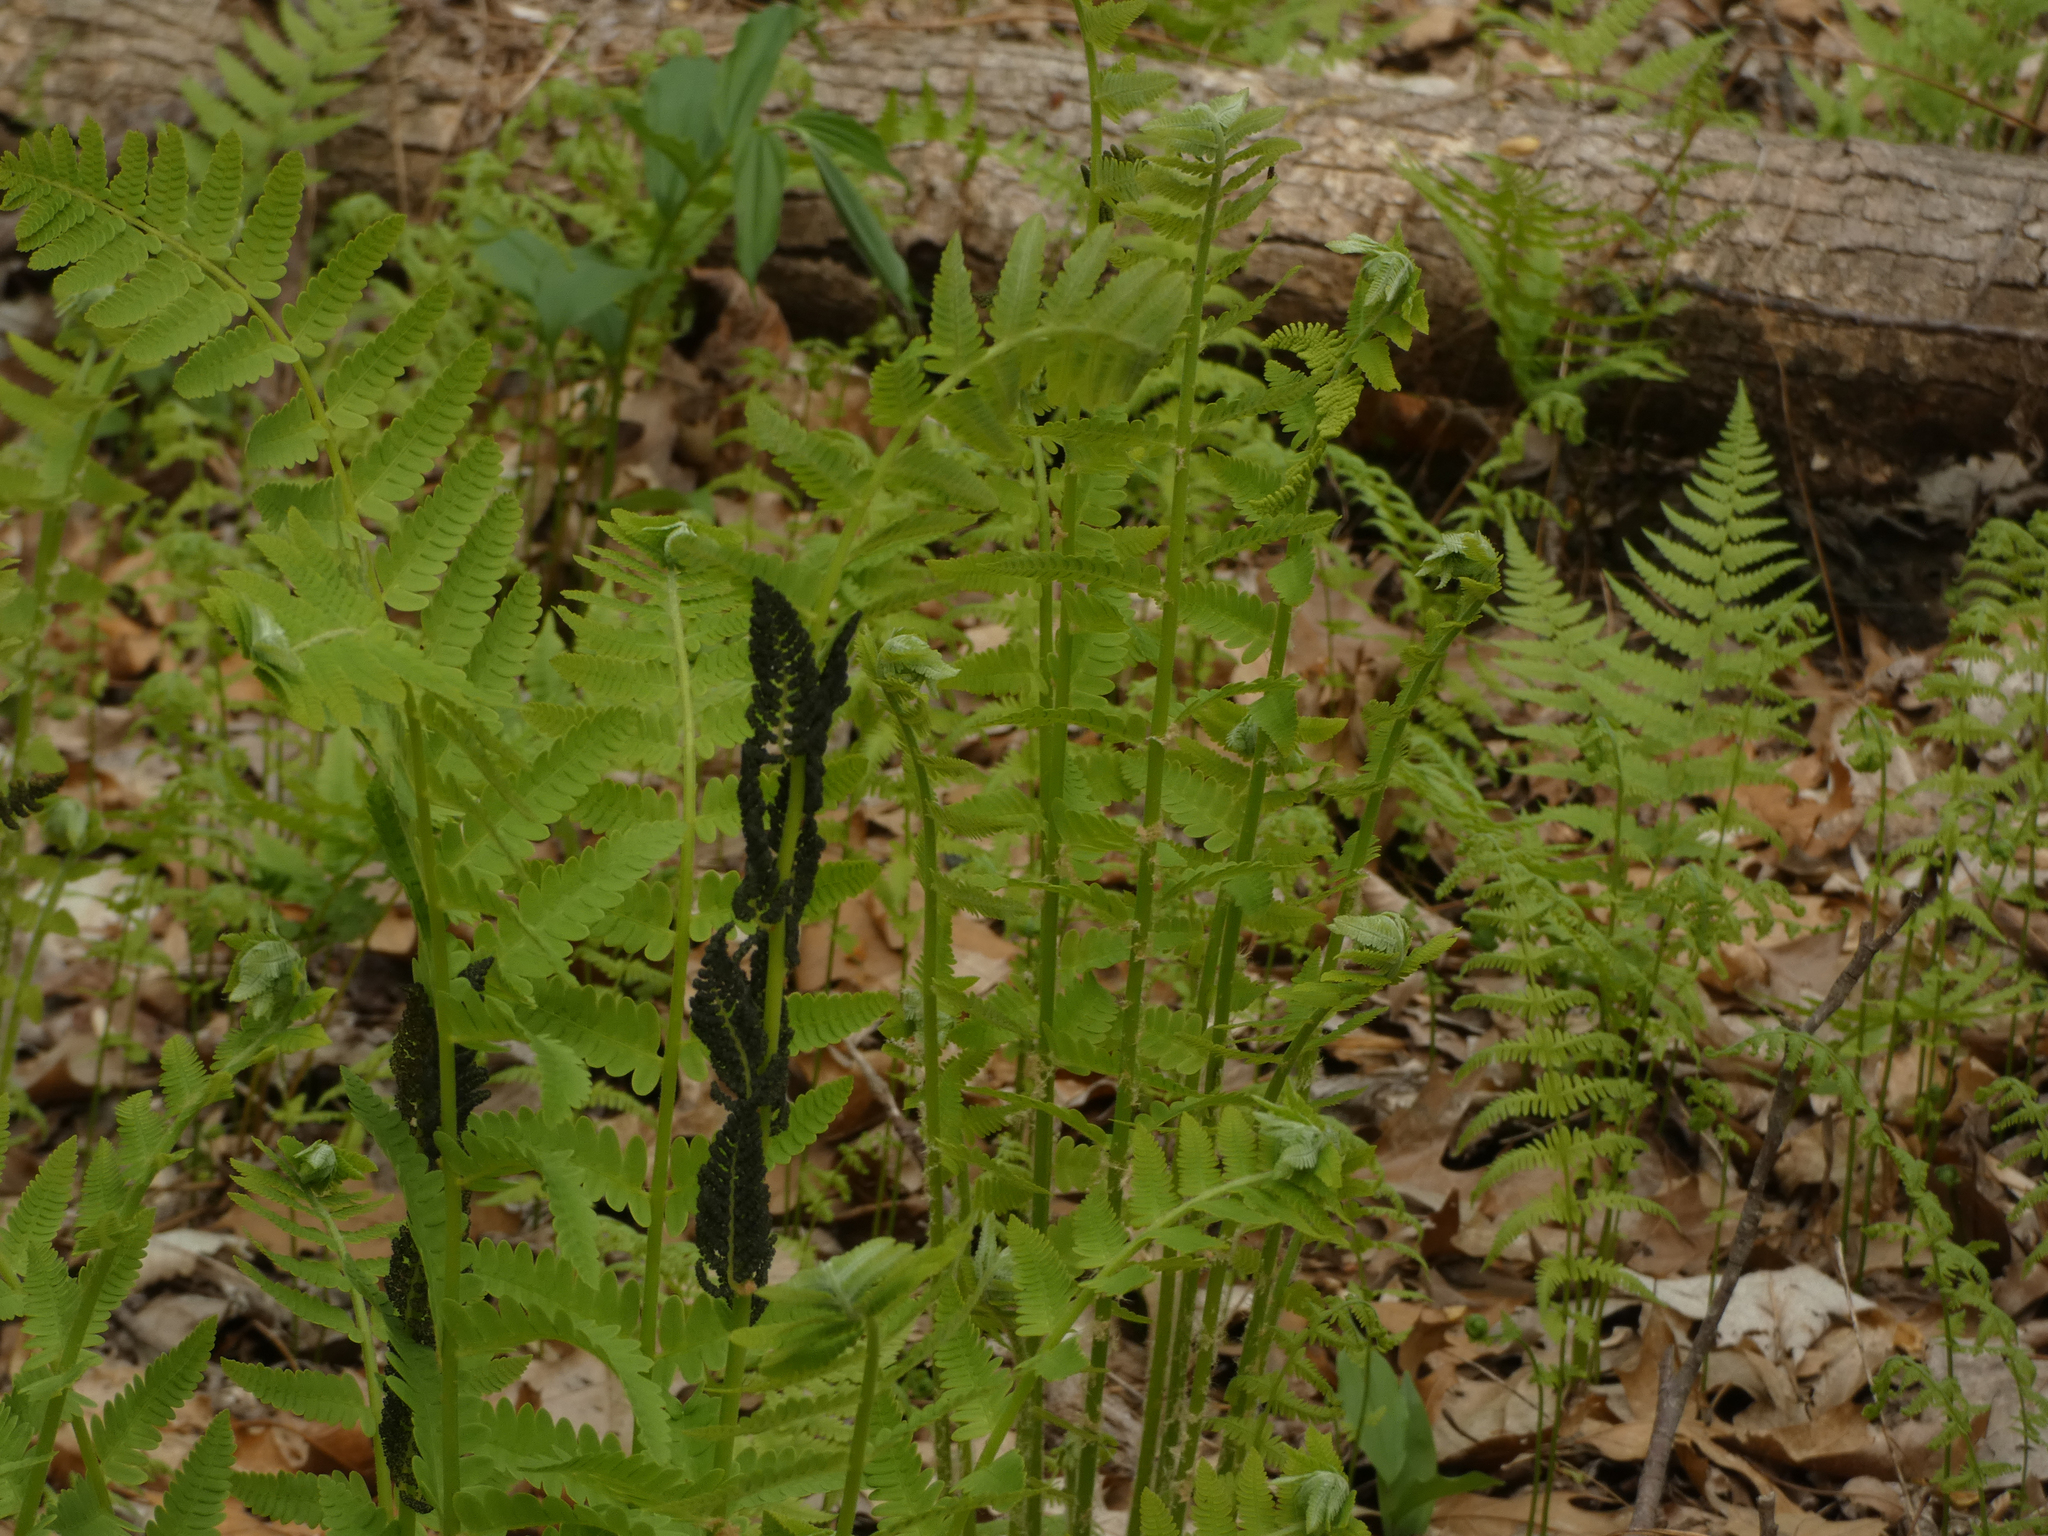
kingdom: Plantae
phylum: Tracheophyta
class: Polypodiopsida
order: Osmundales
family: Osmundaceae
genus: Claytosmunda
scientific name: Claytosmunda claytoniana
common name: Clayton's fern
